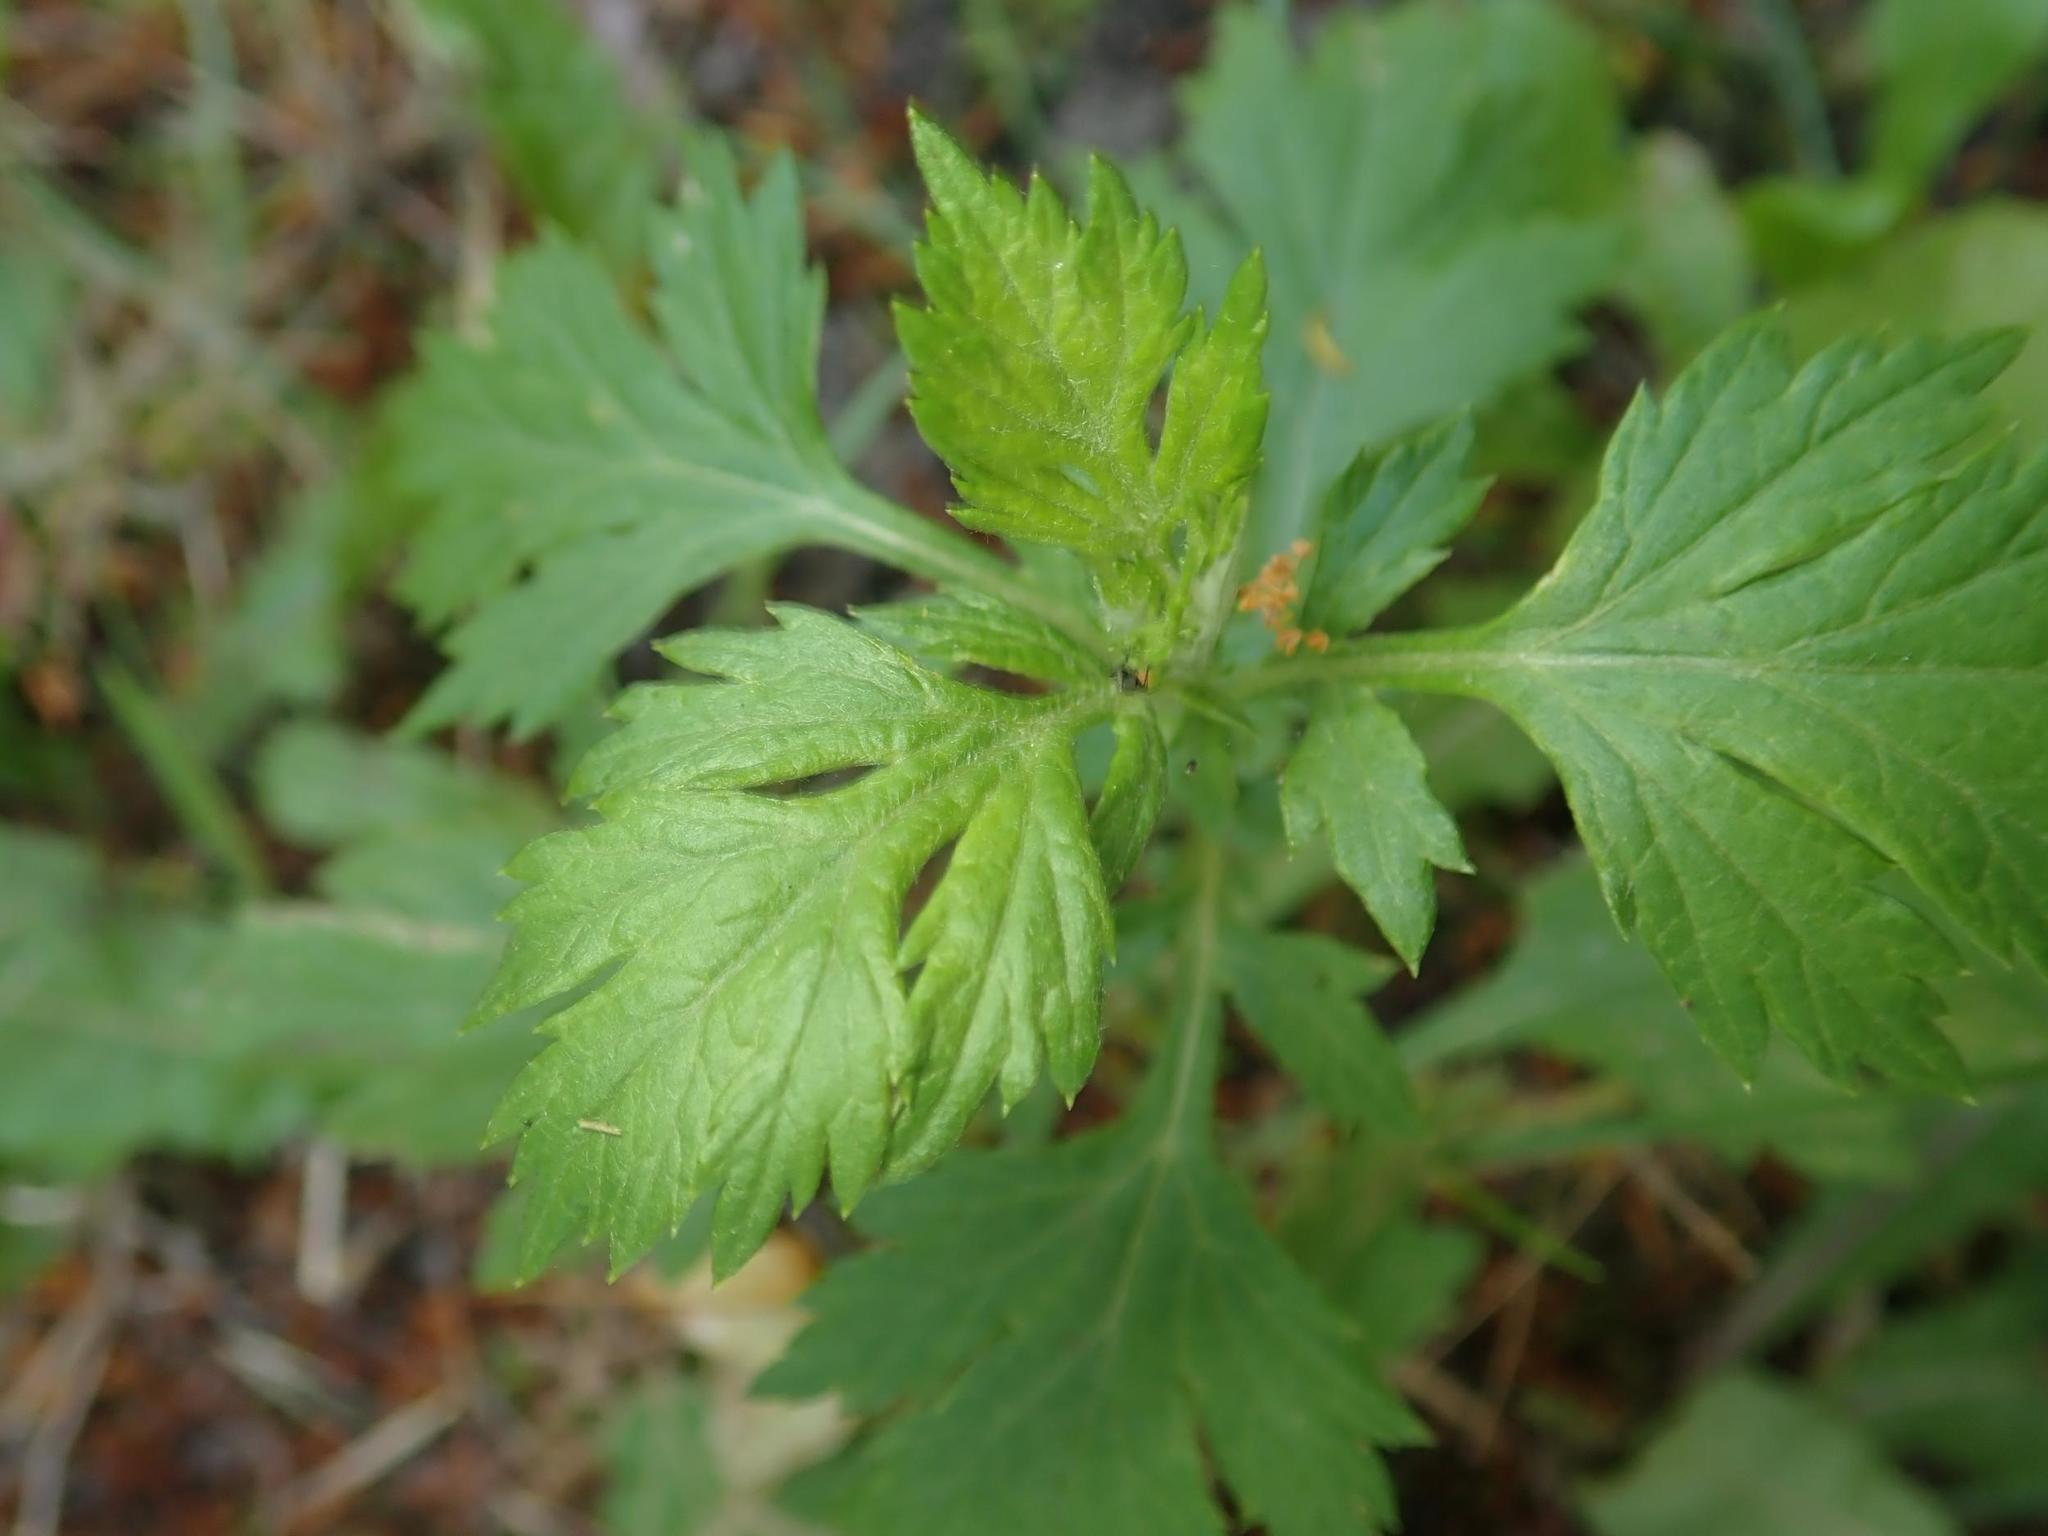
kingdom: Plantae
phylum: Tracheophyta
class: Magnoliopsida
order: Asterales
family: Asteraceae
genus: Artemisia
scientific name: Artemisia vulgaris
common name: Mugwort
